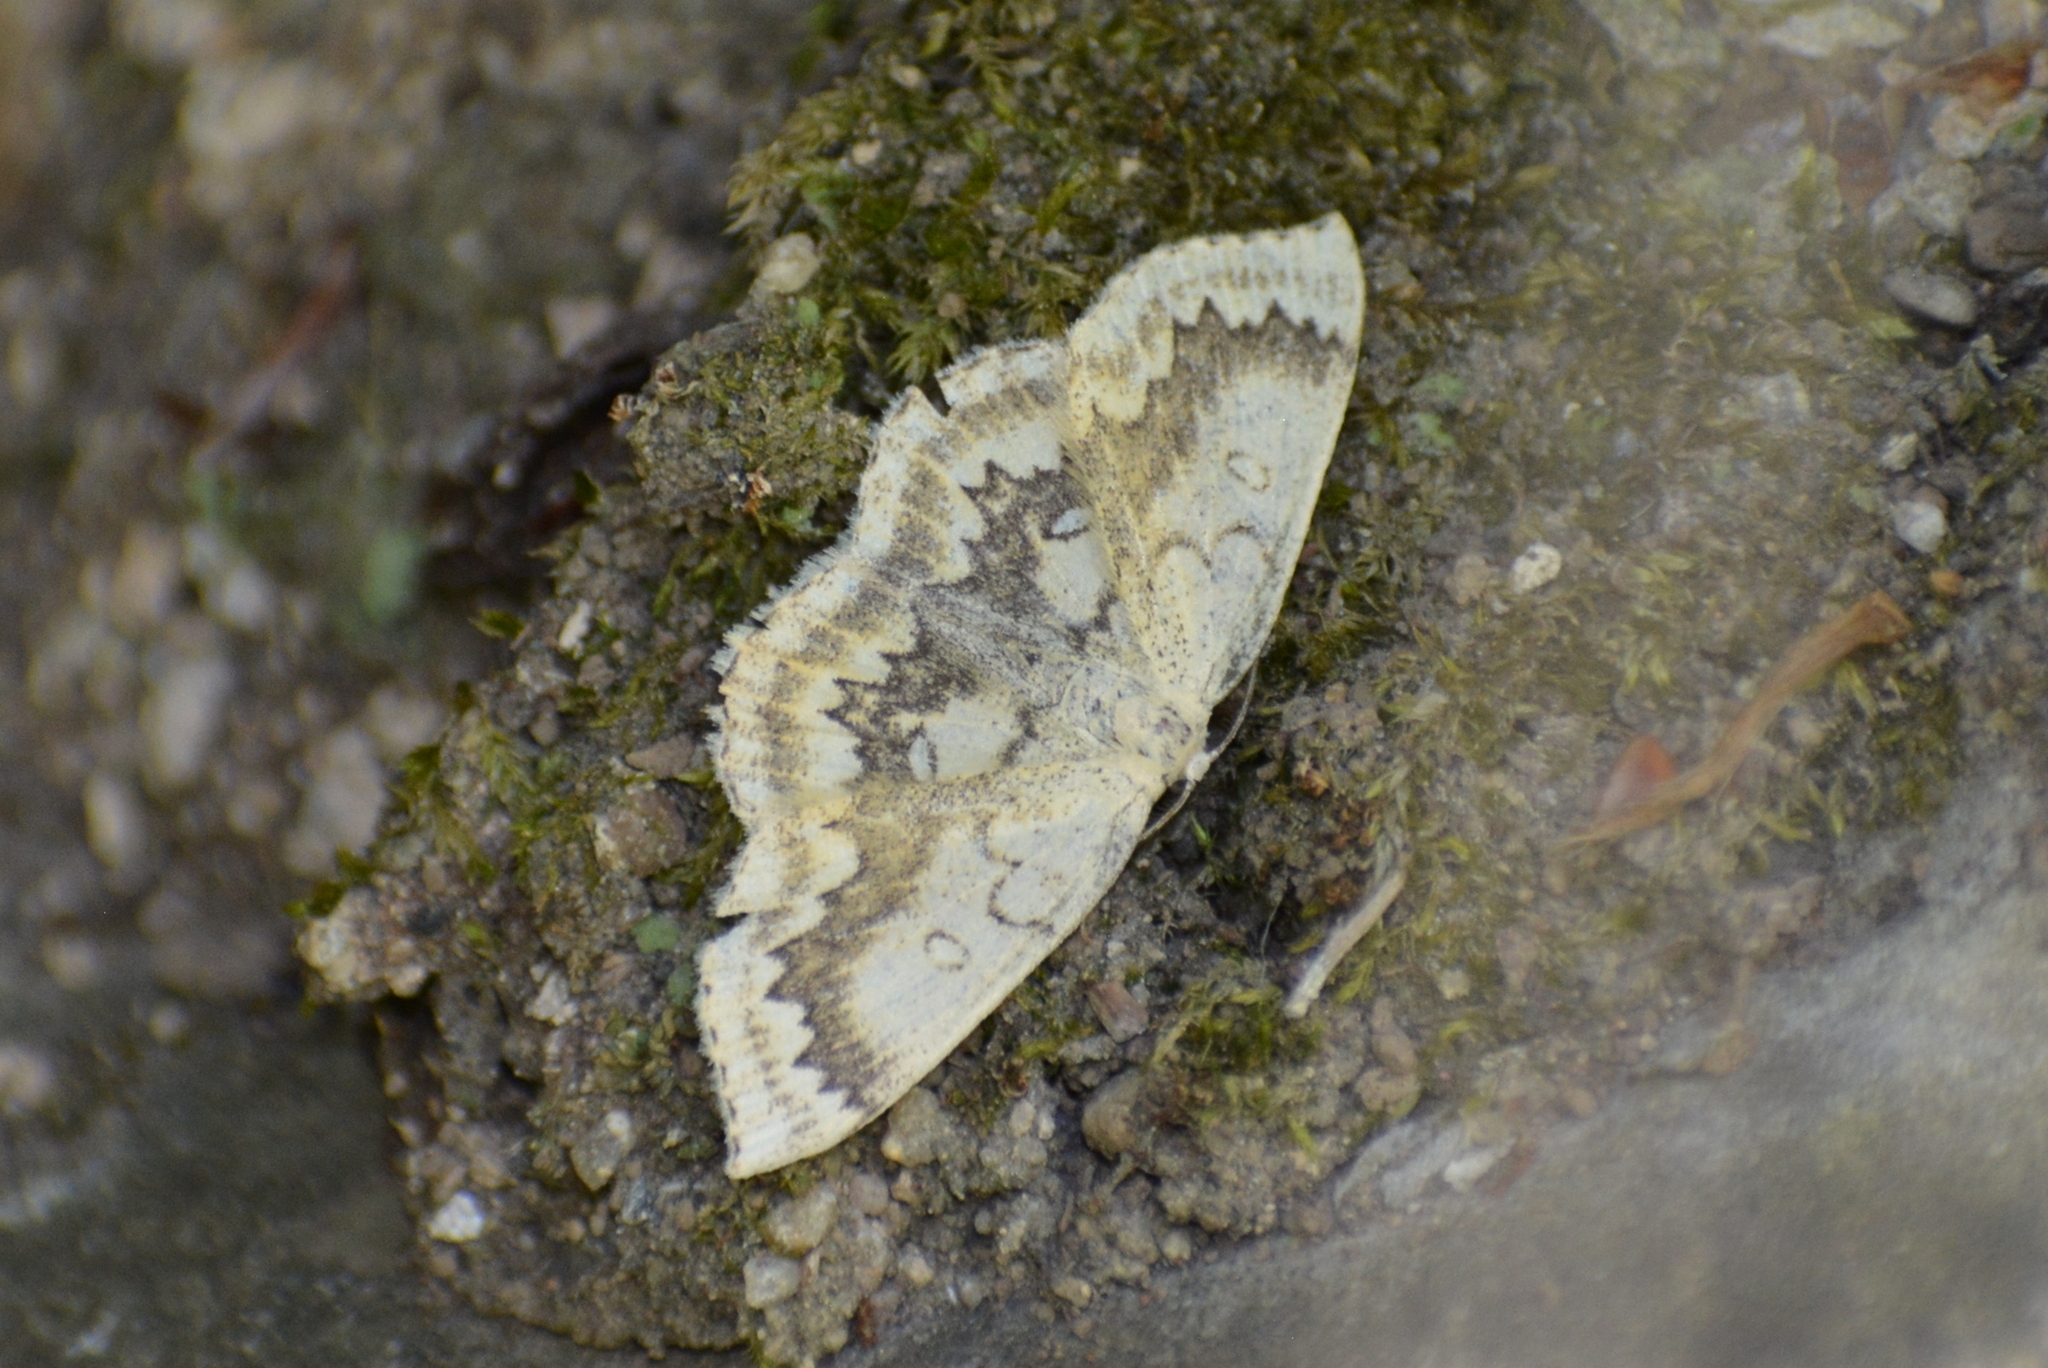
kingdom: Animalia
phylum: Arthropoda
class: Insecta
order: Lepidoptera
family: Geometridae
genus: Cyclophora
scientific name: Cyclophora annularia
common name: Mocha
